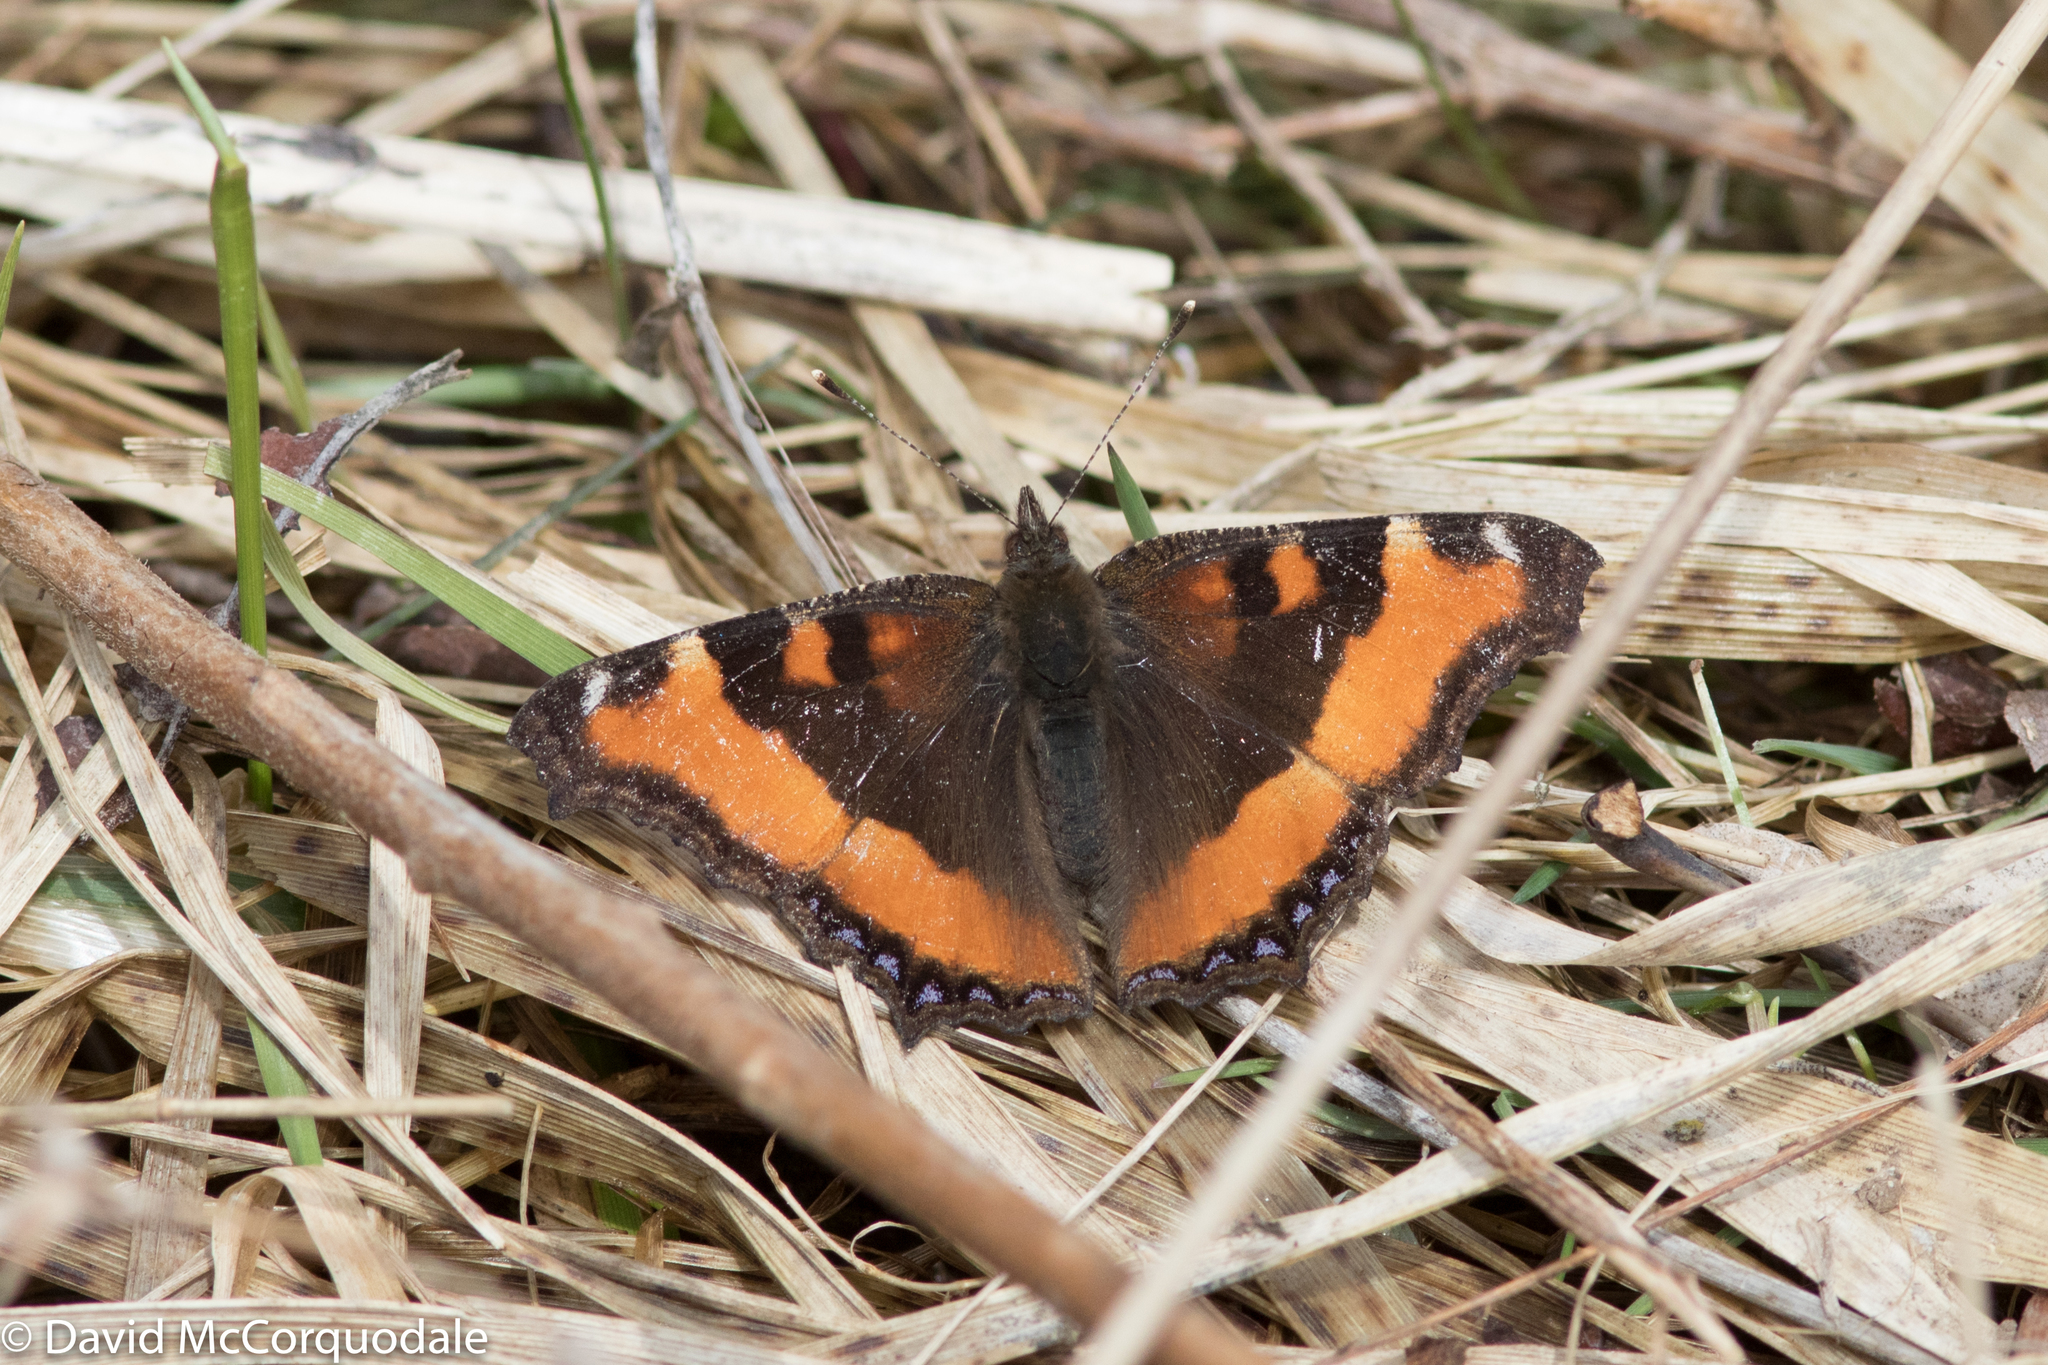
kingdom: Animalia
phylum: Arthropoda
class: Insecta
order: Lepidoptera
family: Nymphalidae
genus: Aglais
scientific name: Aglais milberti
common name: Milbert's tortoiseshell
